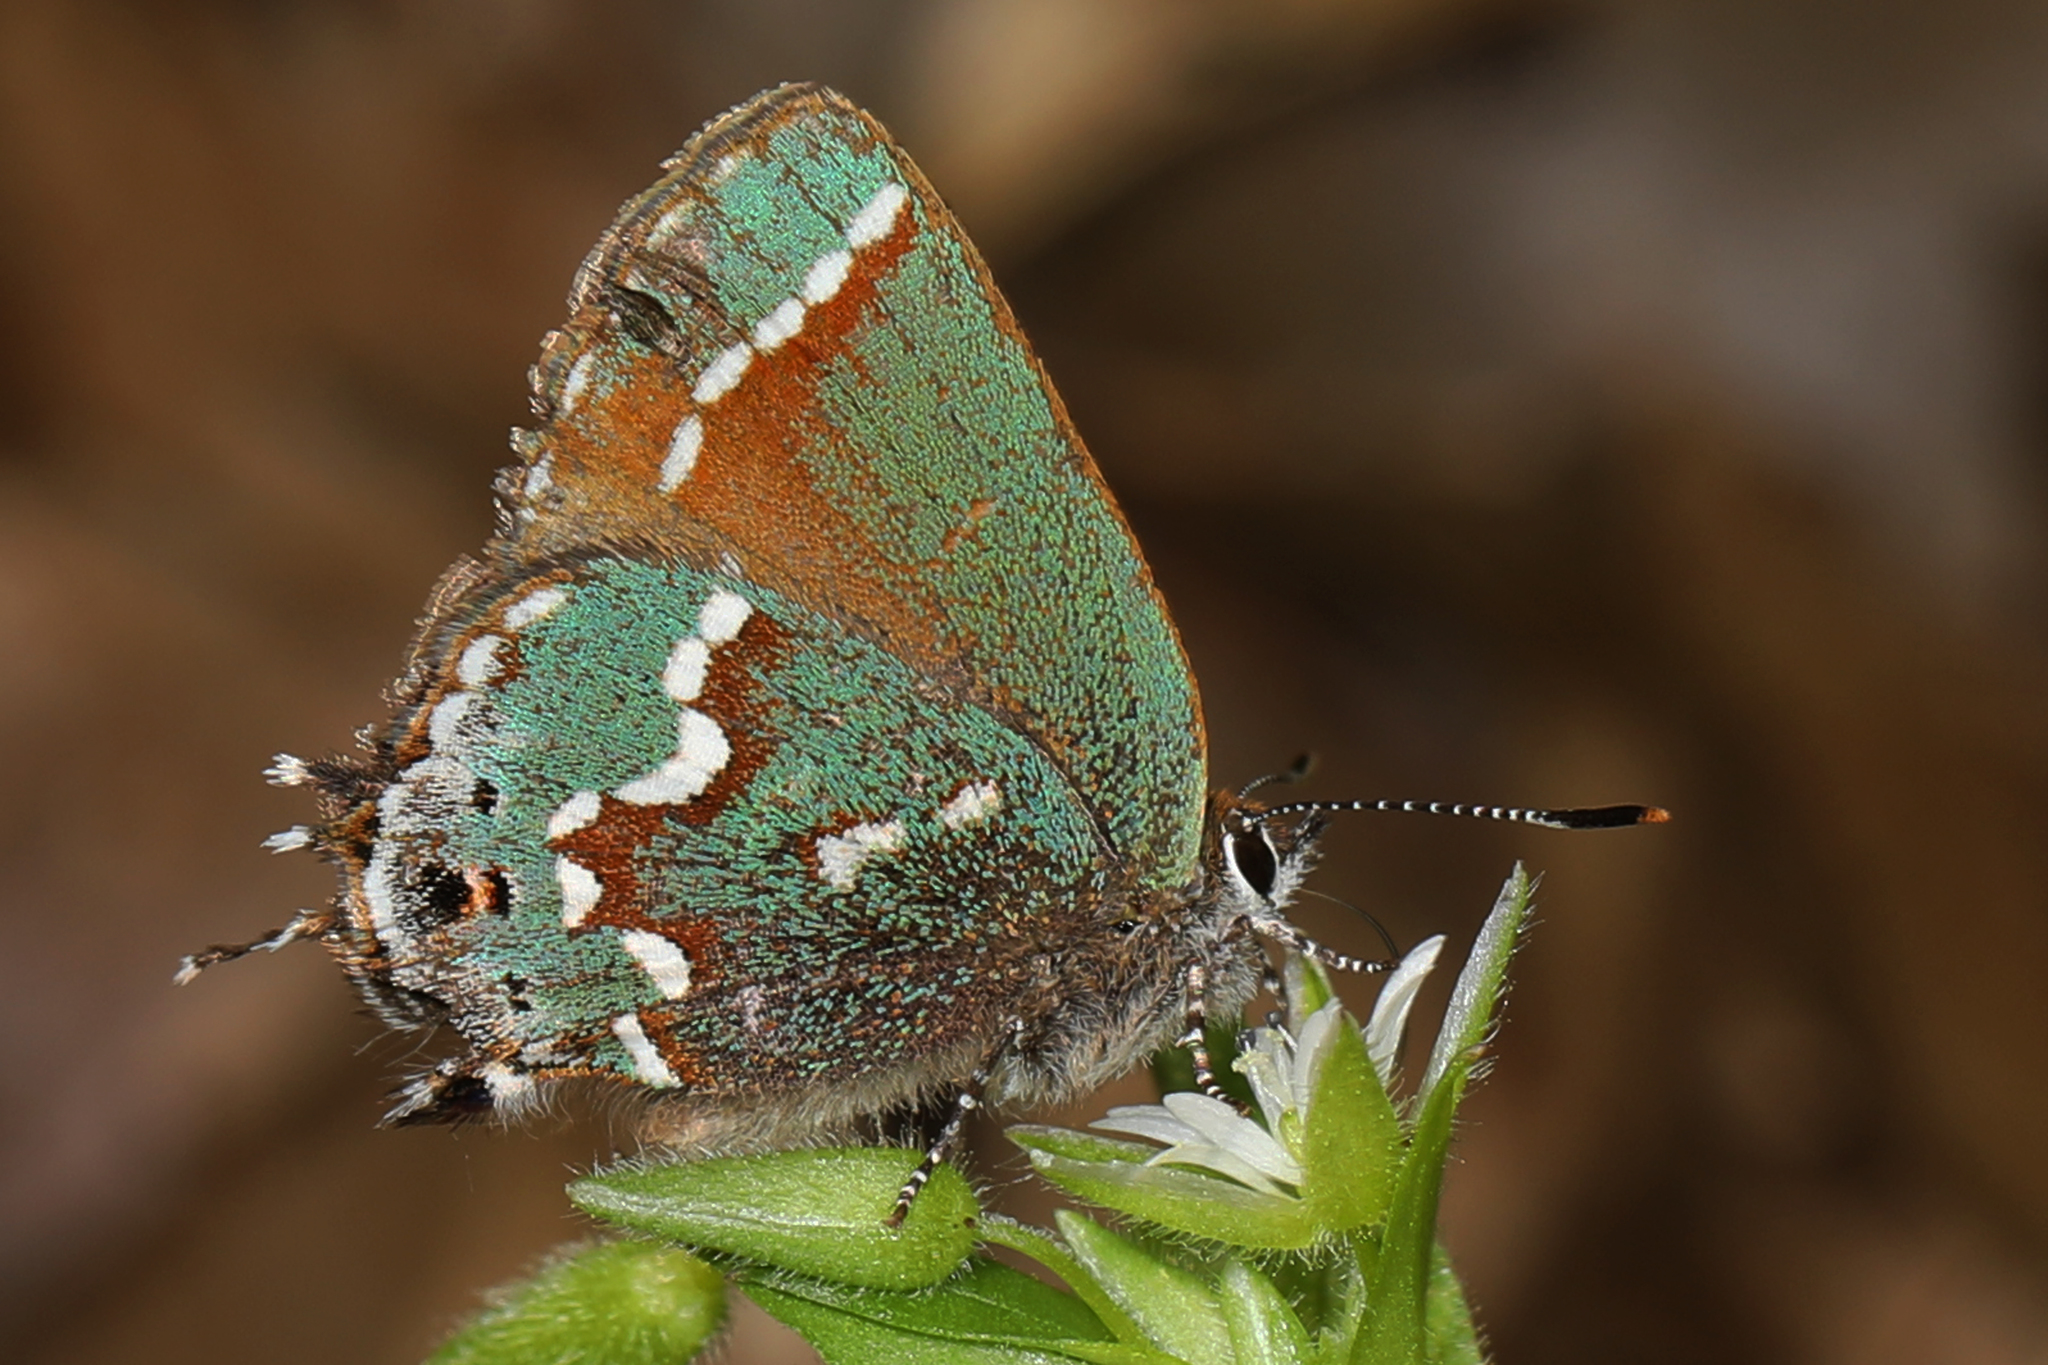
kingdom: Animalia
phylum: Arthropoda
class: Insecta
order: Lepidoptera
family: Lycaenidae
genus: Mitoura
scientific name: Mitoura gryneus
